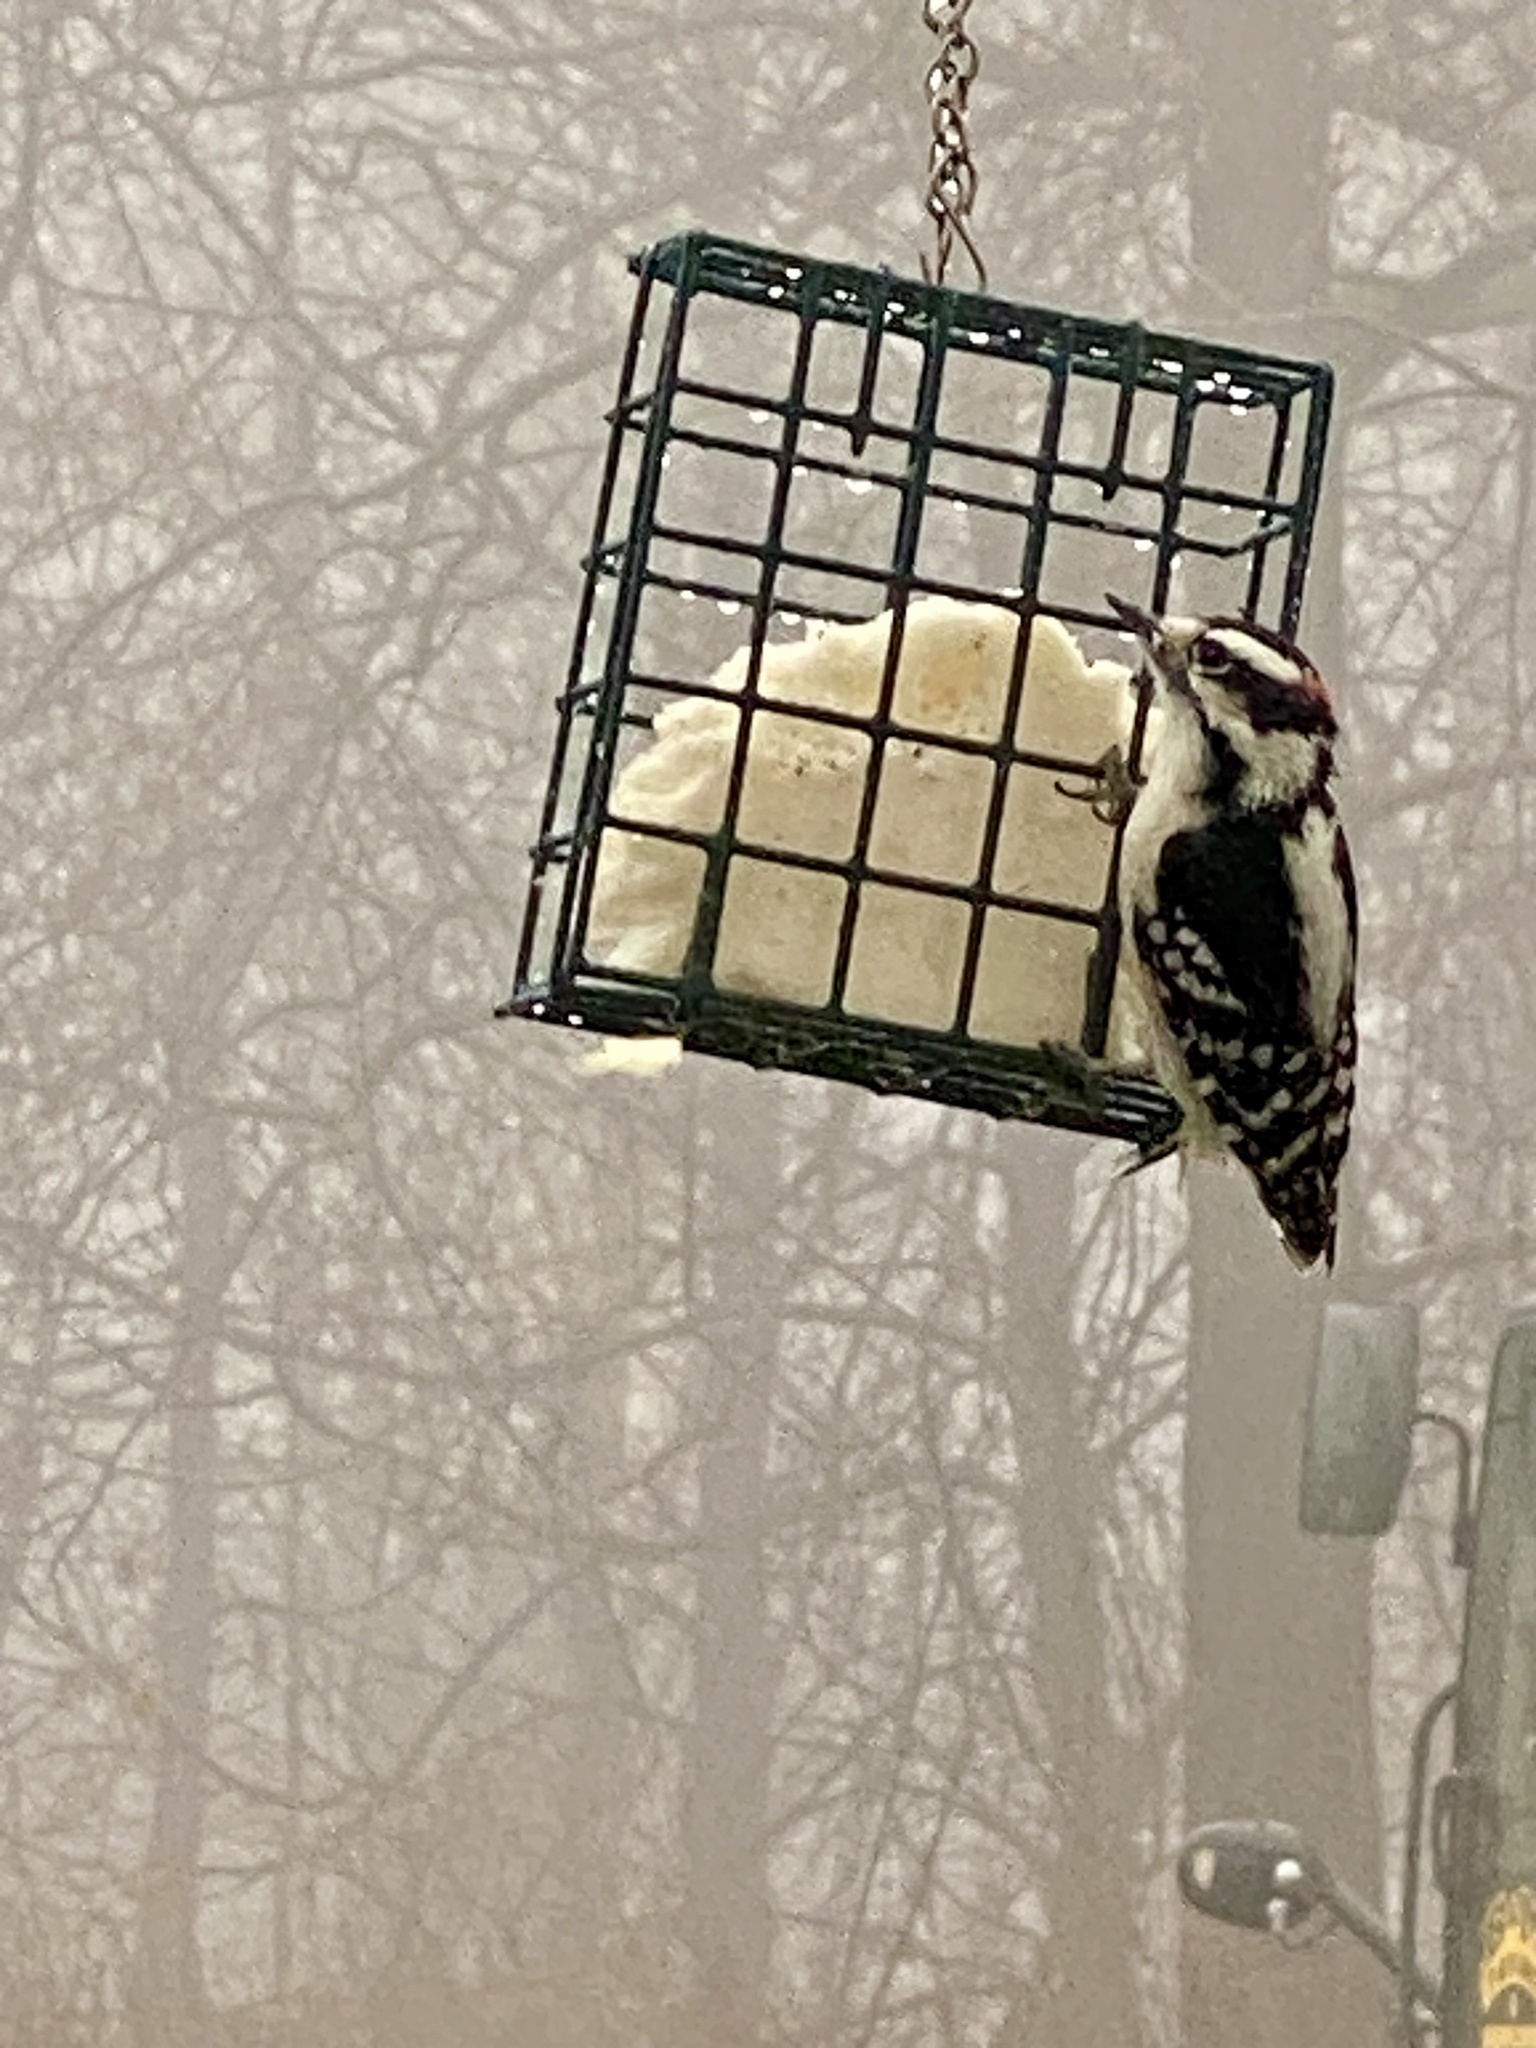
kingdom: Animalia
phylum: Chordata
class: Aves
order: Piciformes
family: Picidae
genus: Dryobates
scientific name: Dryobates pubescens
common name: Downy woodpecker
